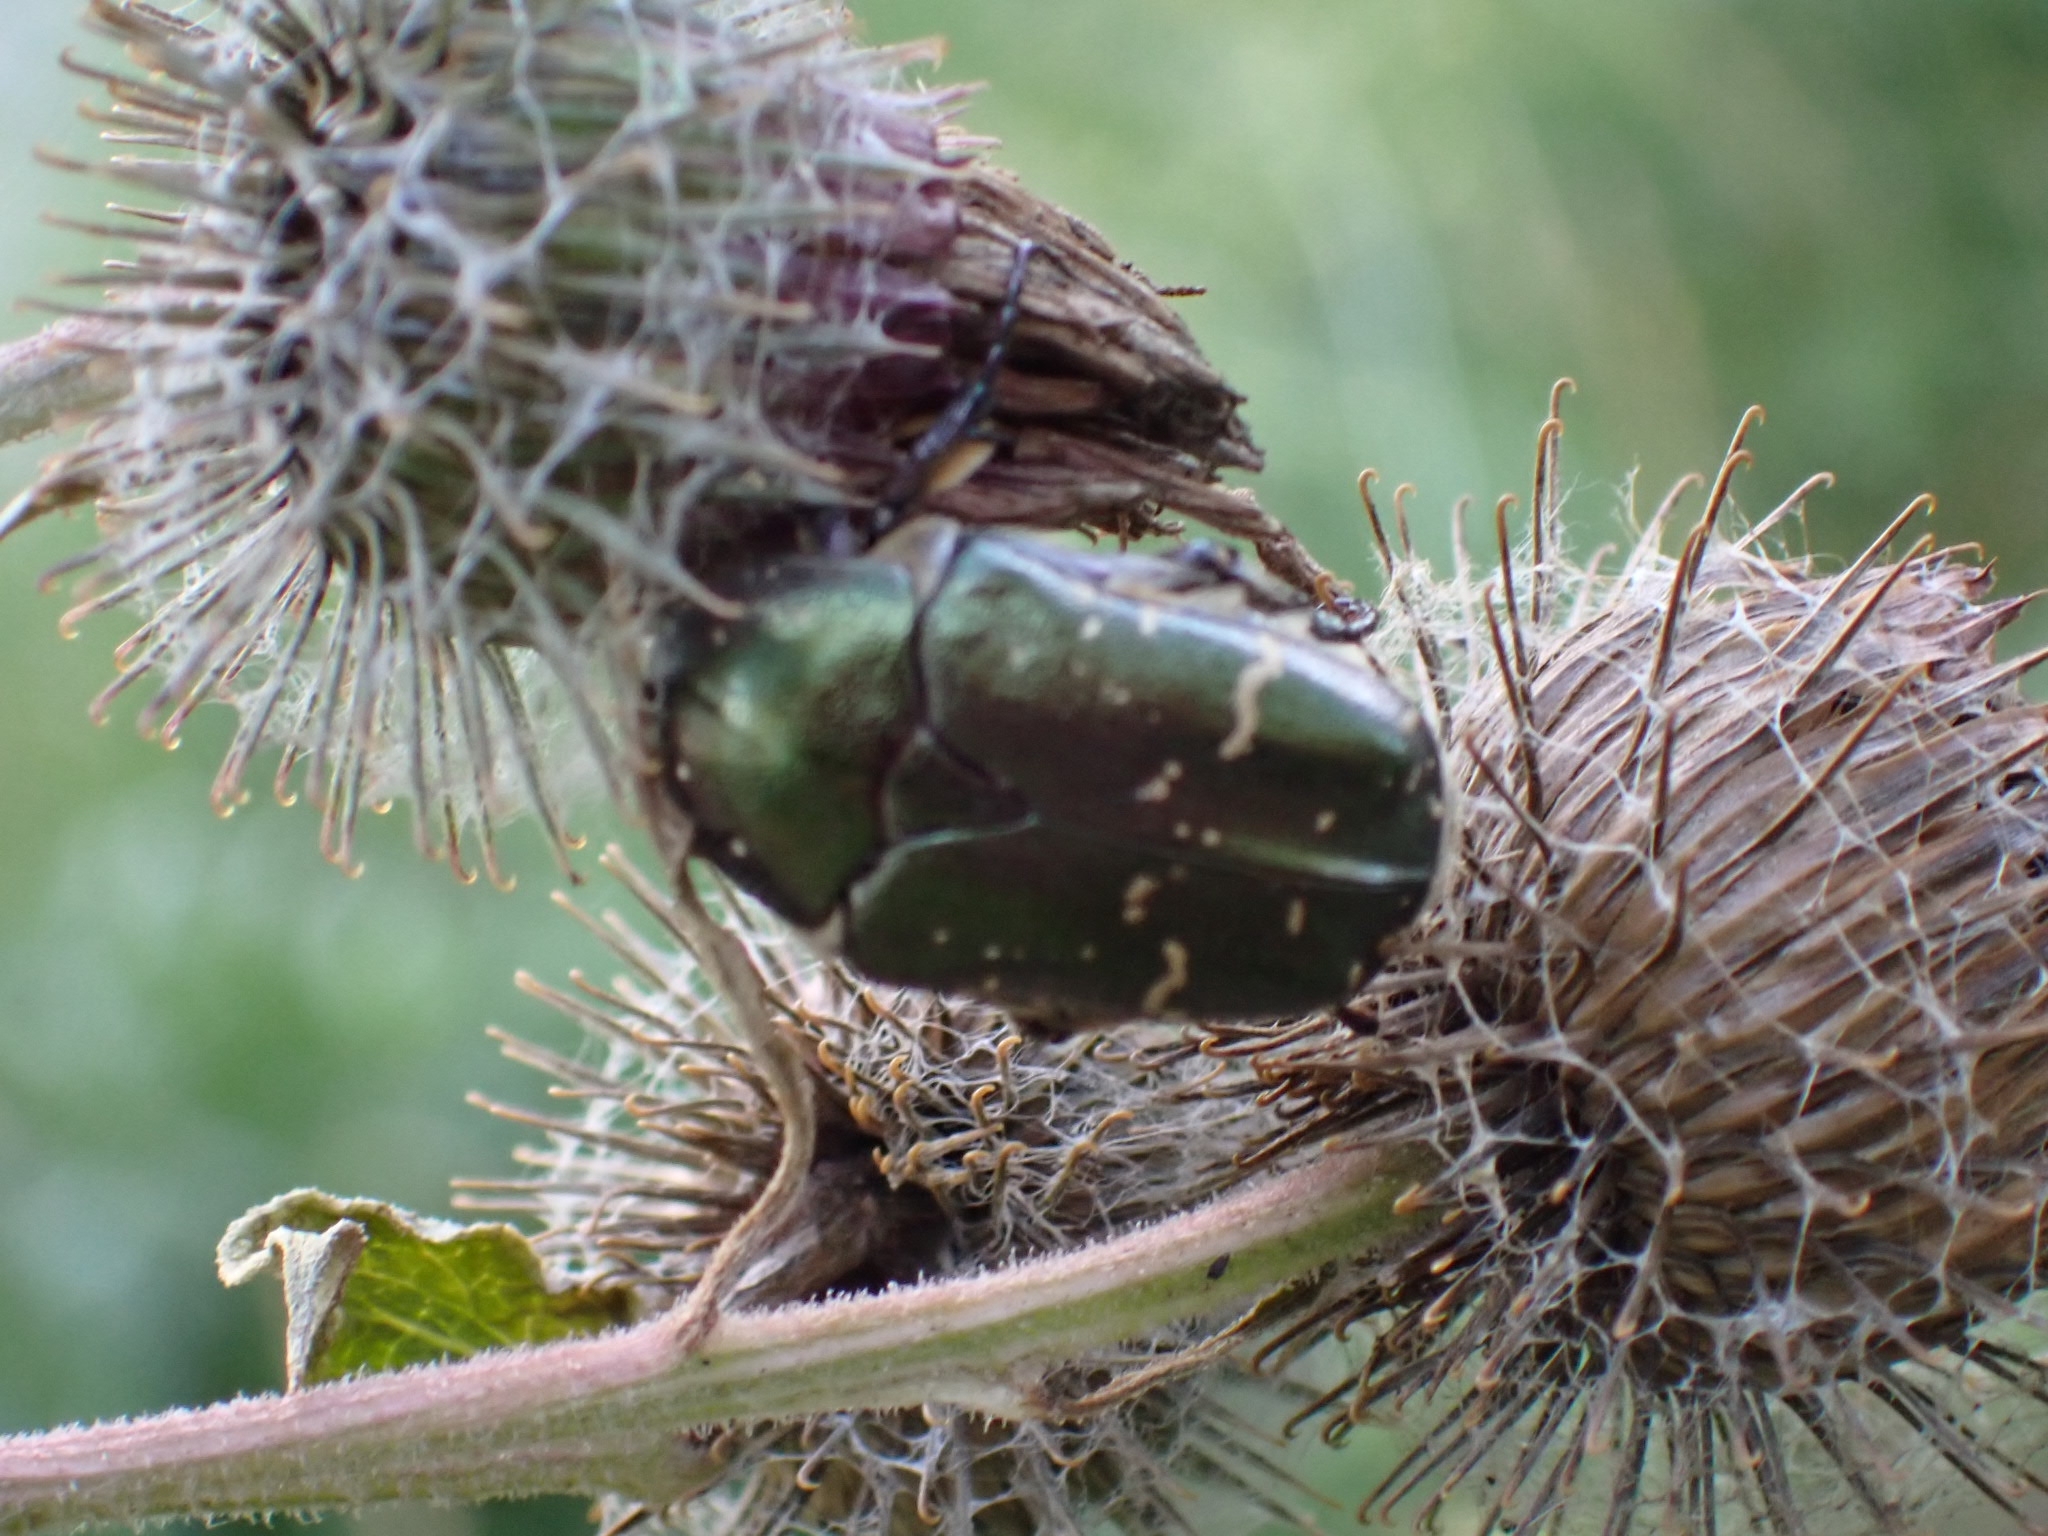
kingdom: Animalia
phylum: Arthropoda
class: Insecta
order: Coleoptera
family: Scarabaeidae
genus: Protaetia
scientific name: Protaetia cuprea
